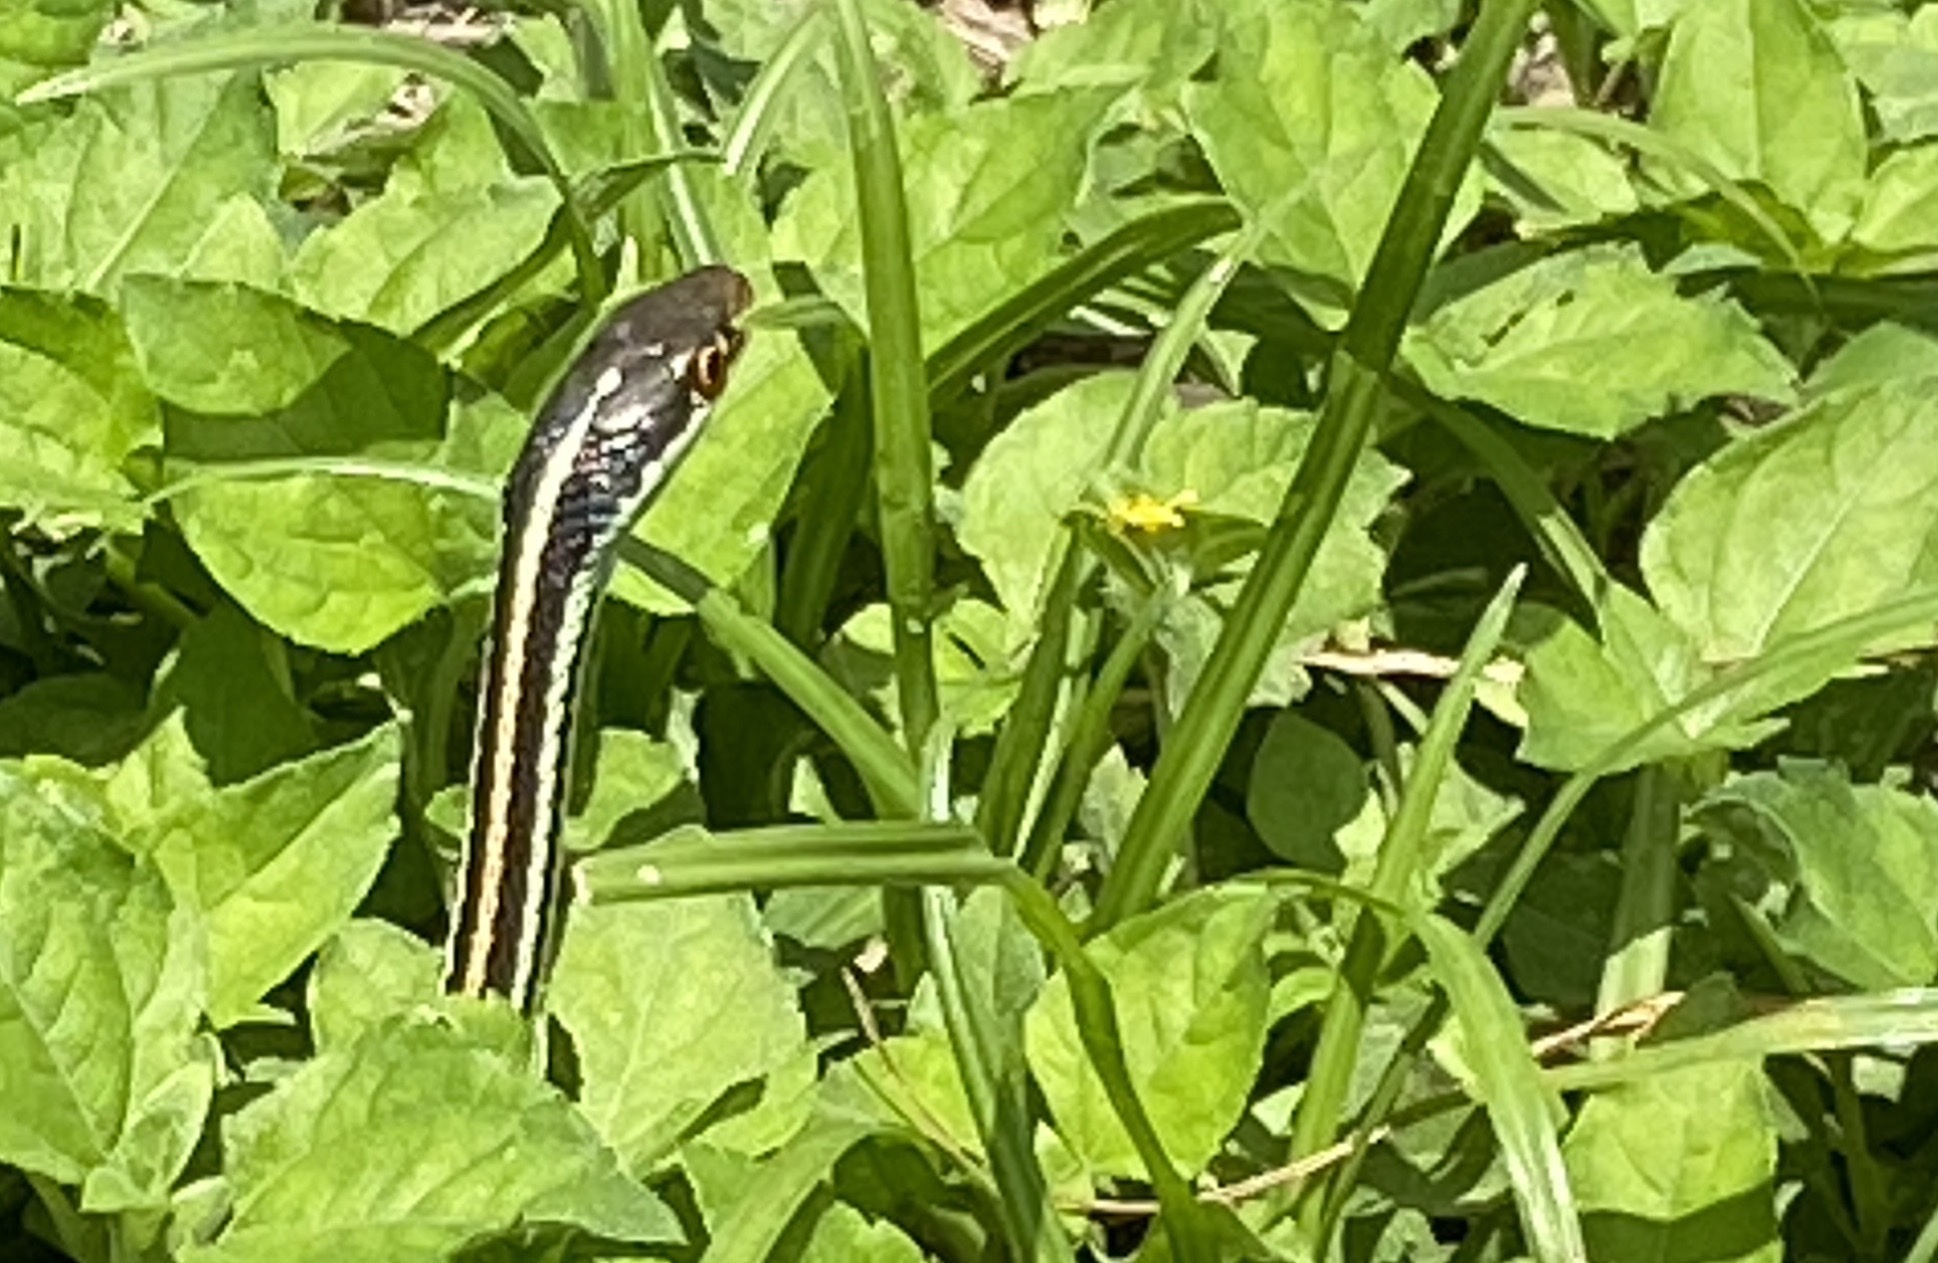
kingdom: Animalia
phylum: Chordata
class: Squamata
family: Colubridae
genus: Thamnophis
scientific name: Thamnophis proximus
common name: Western ribbon snake
